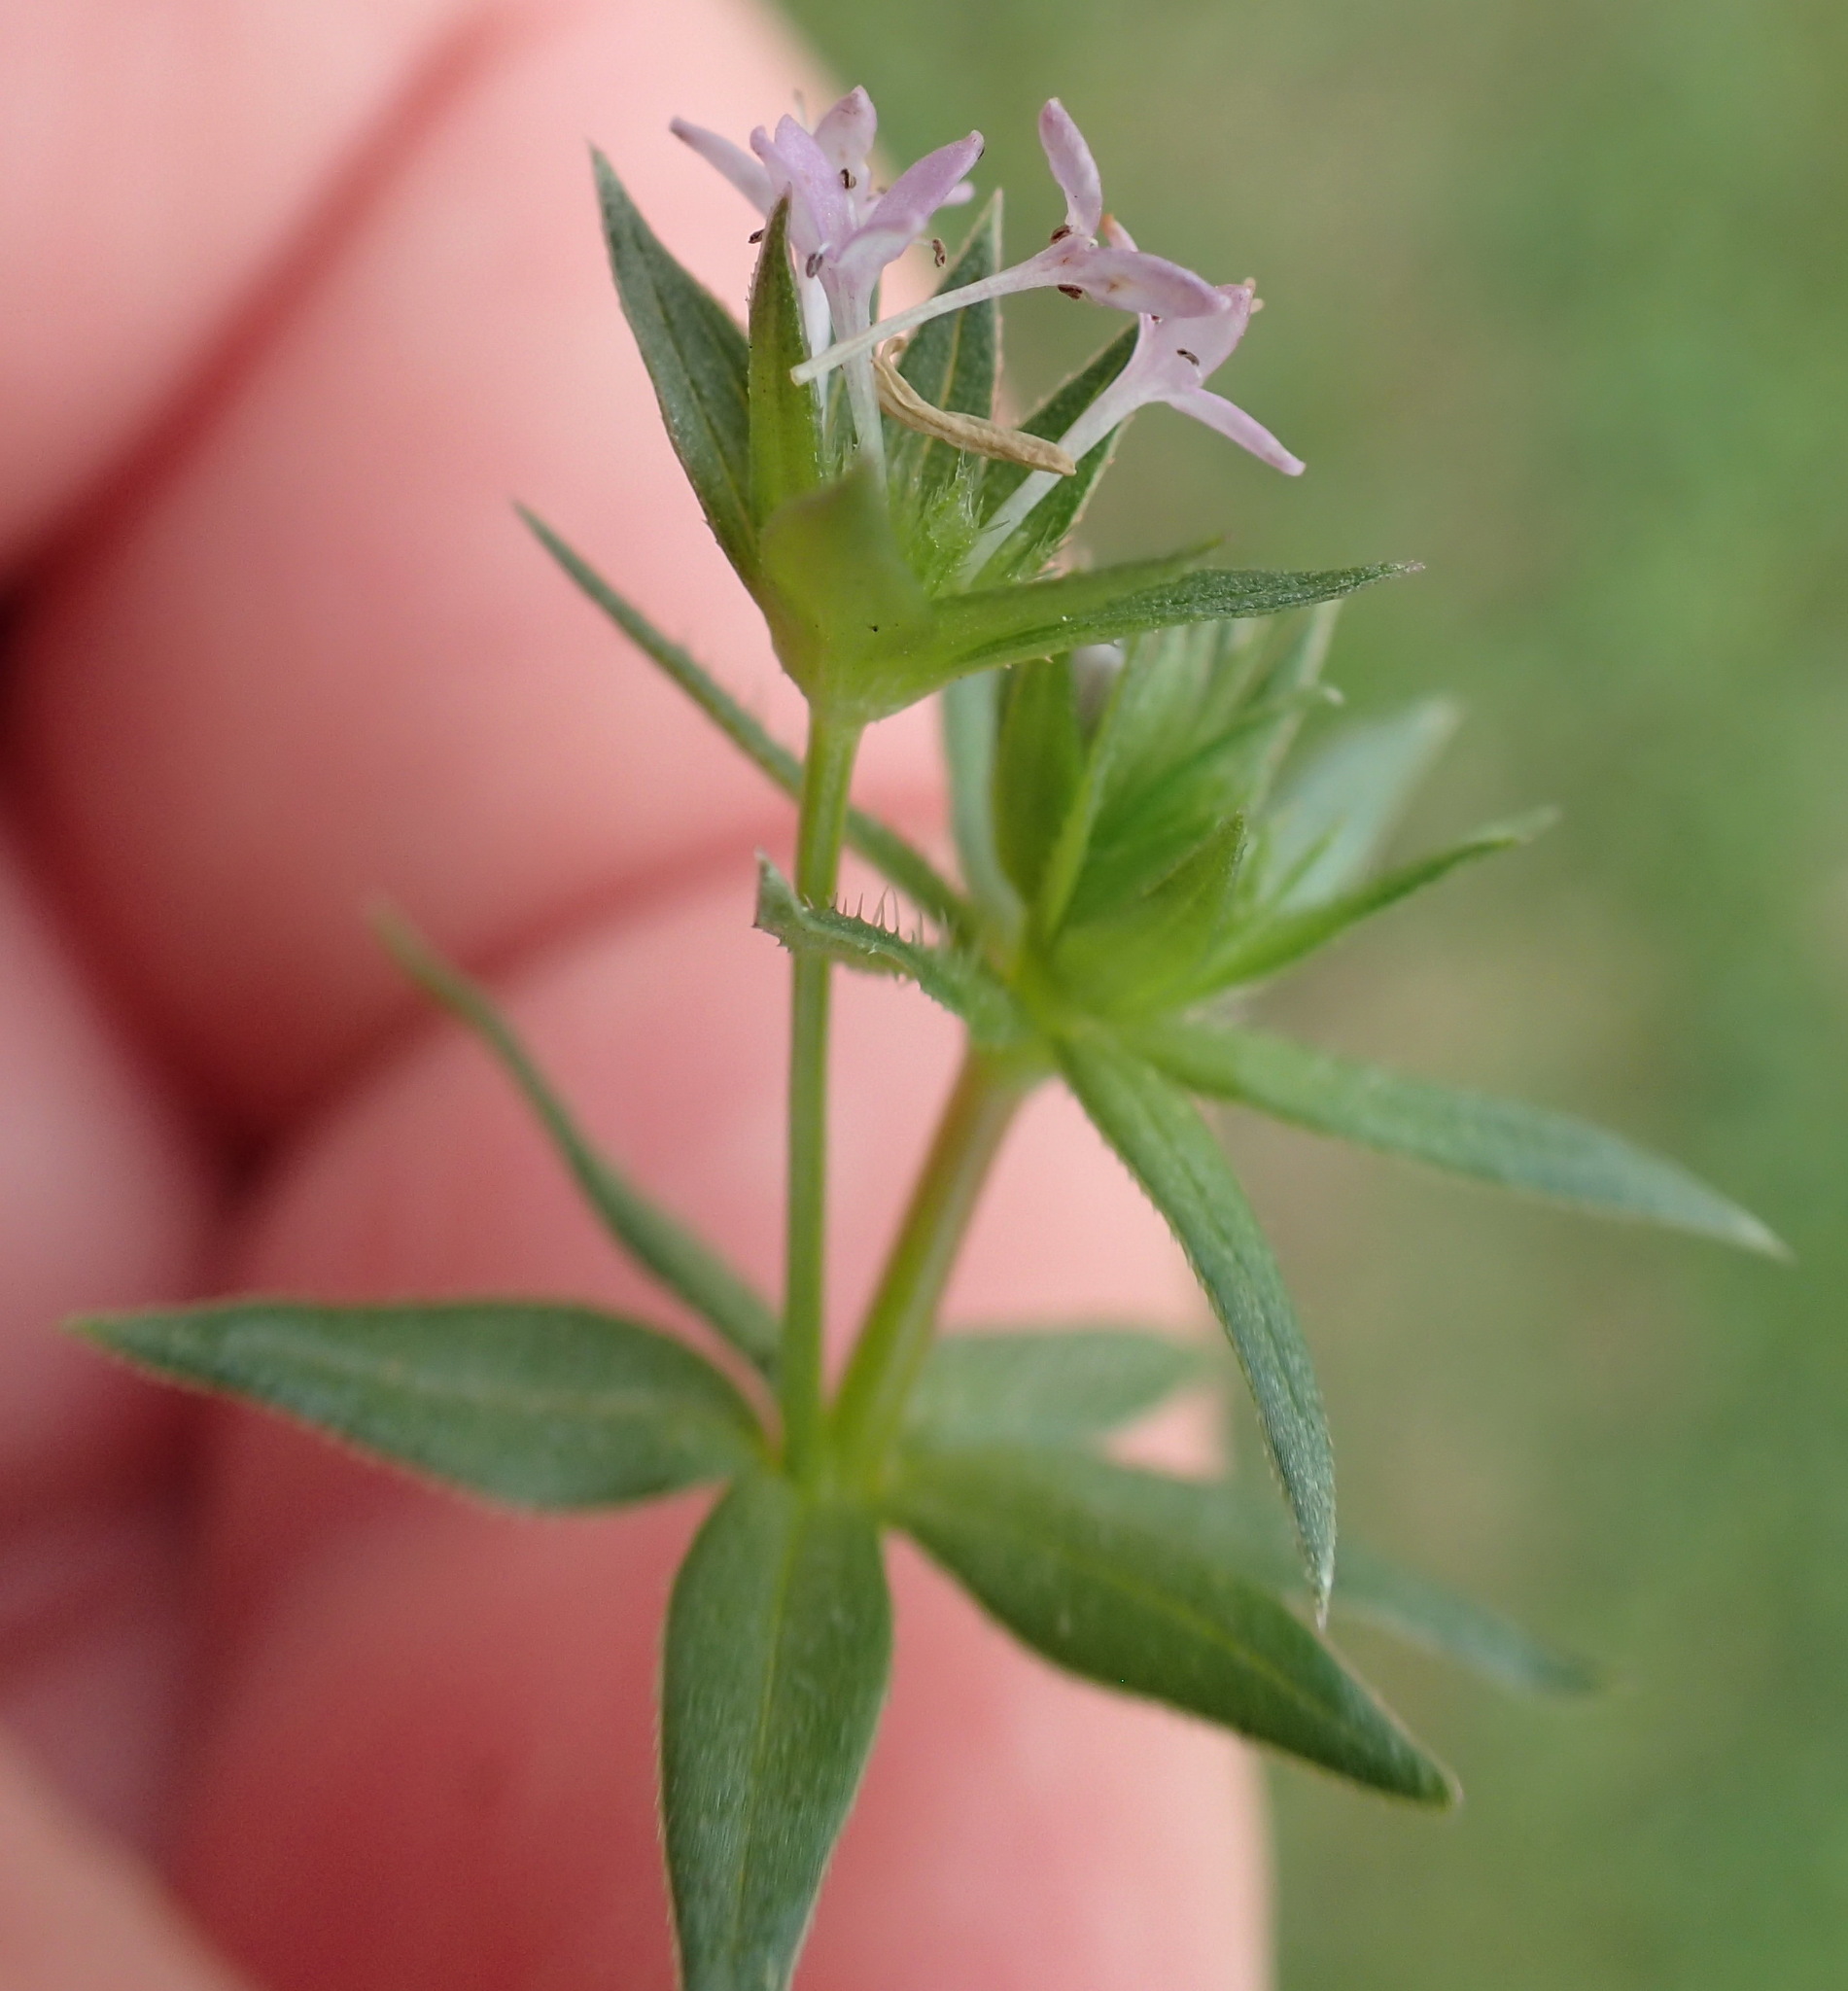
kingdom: Plantae
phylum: Tracheophyta
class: Magnoliopsida
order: Gentianales
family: Rubiaceae
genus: Sherardia
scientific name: Sherardia arvensis
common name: Field madder
